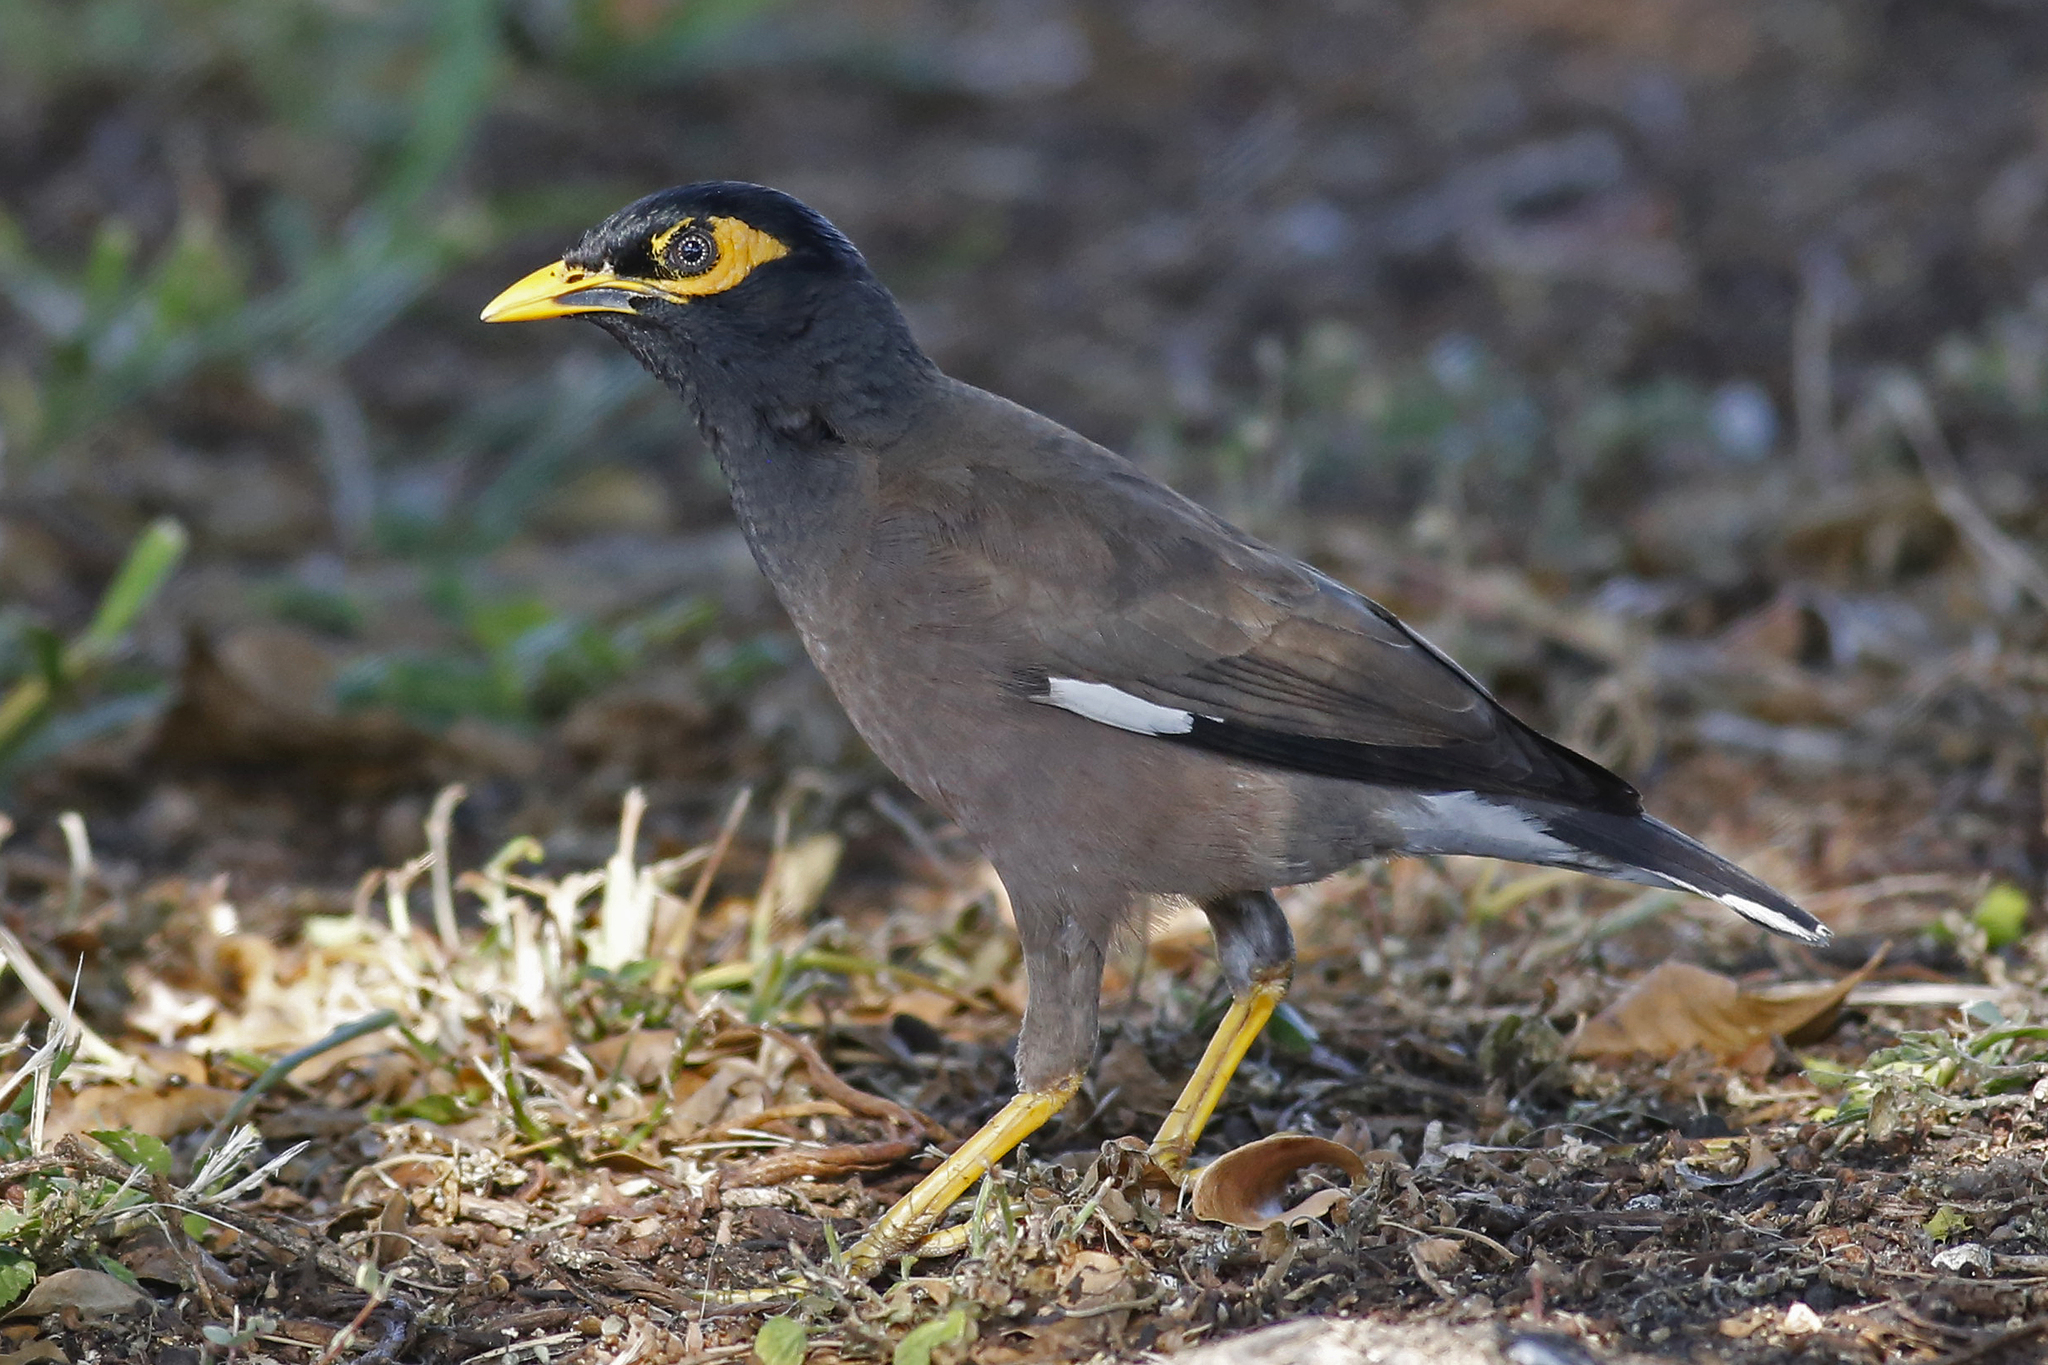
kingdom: Animalia
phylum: Chordata
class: Aves
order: Passeriformes
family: Sturnidae
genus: Acridotheres
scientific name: Acridotheres tristis
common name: Common myna
